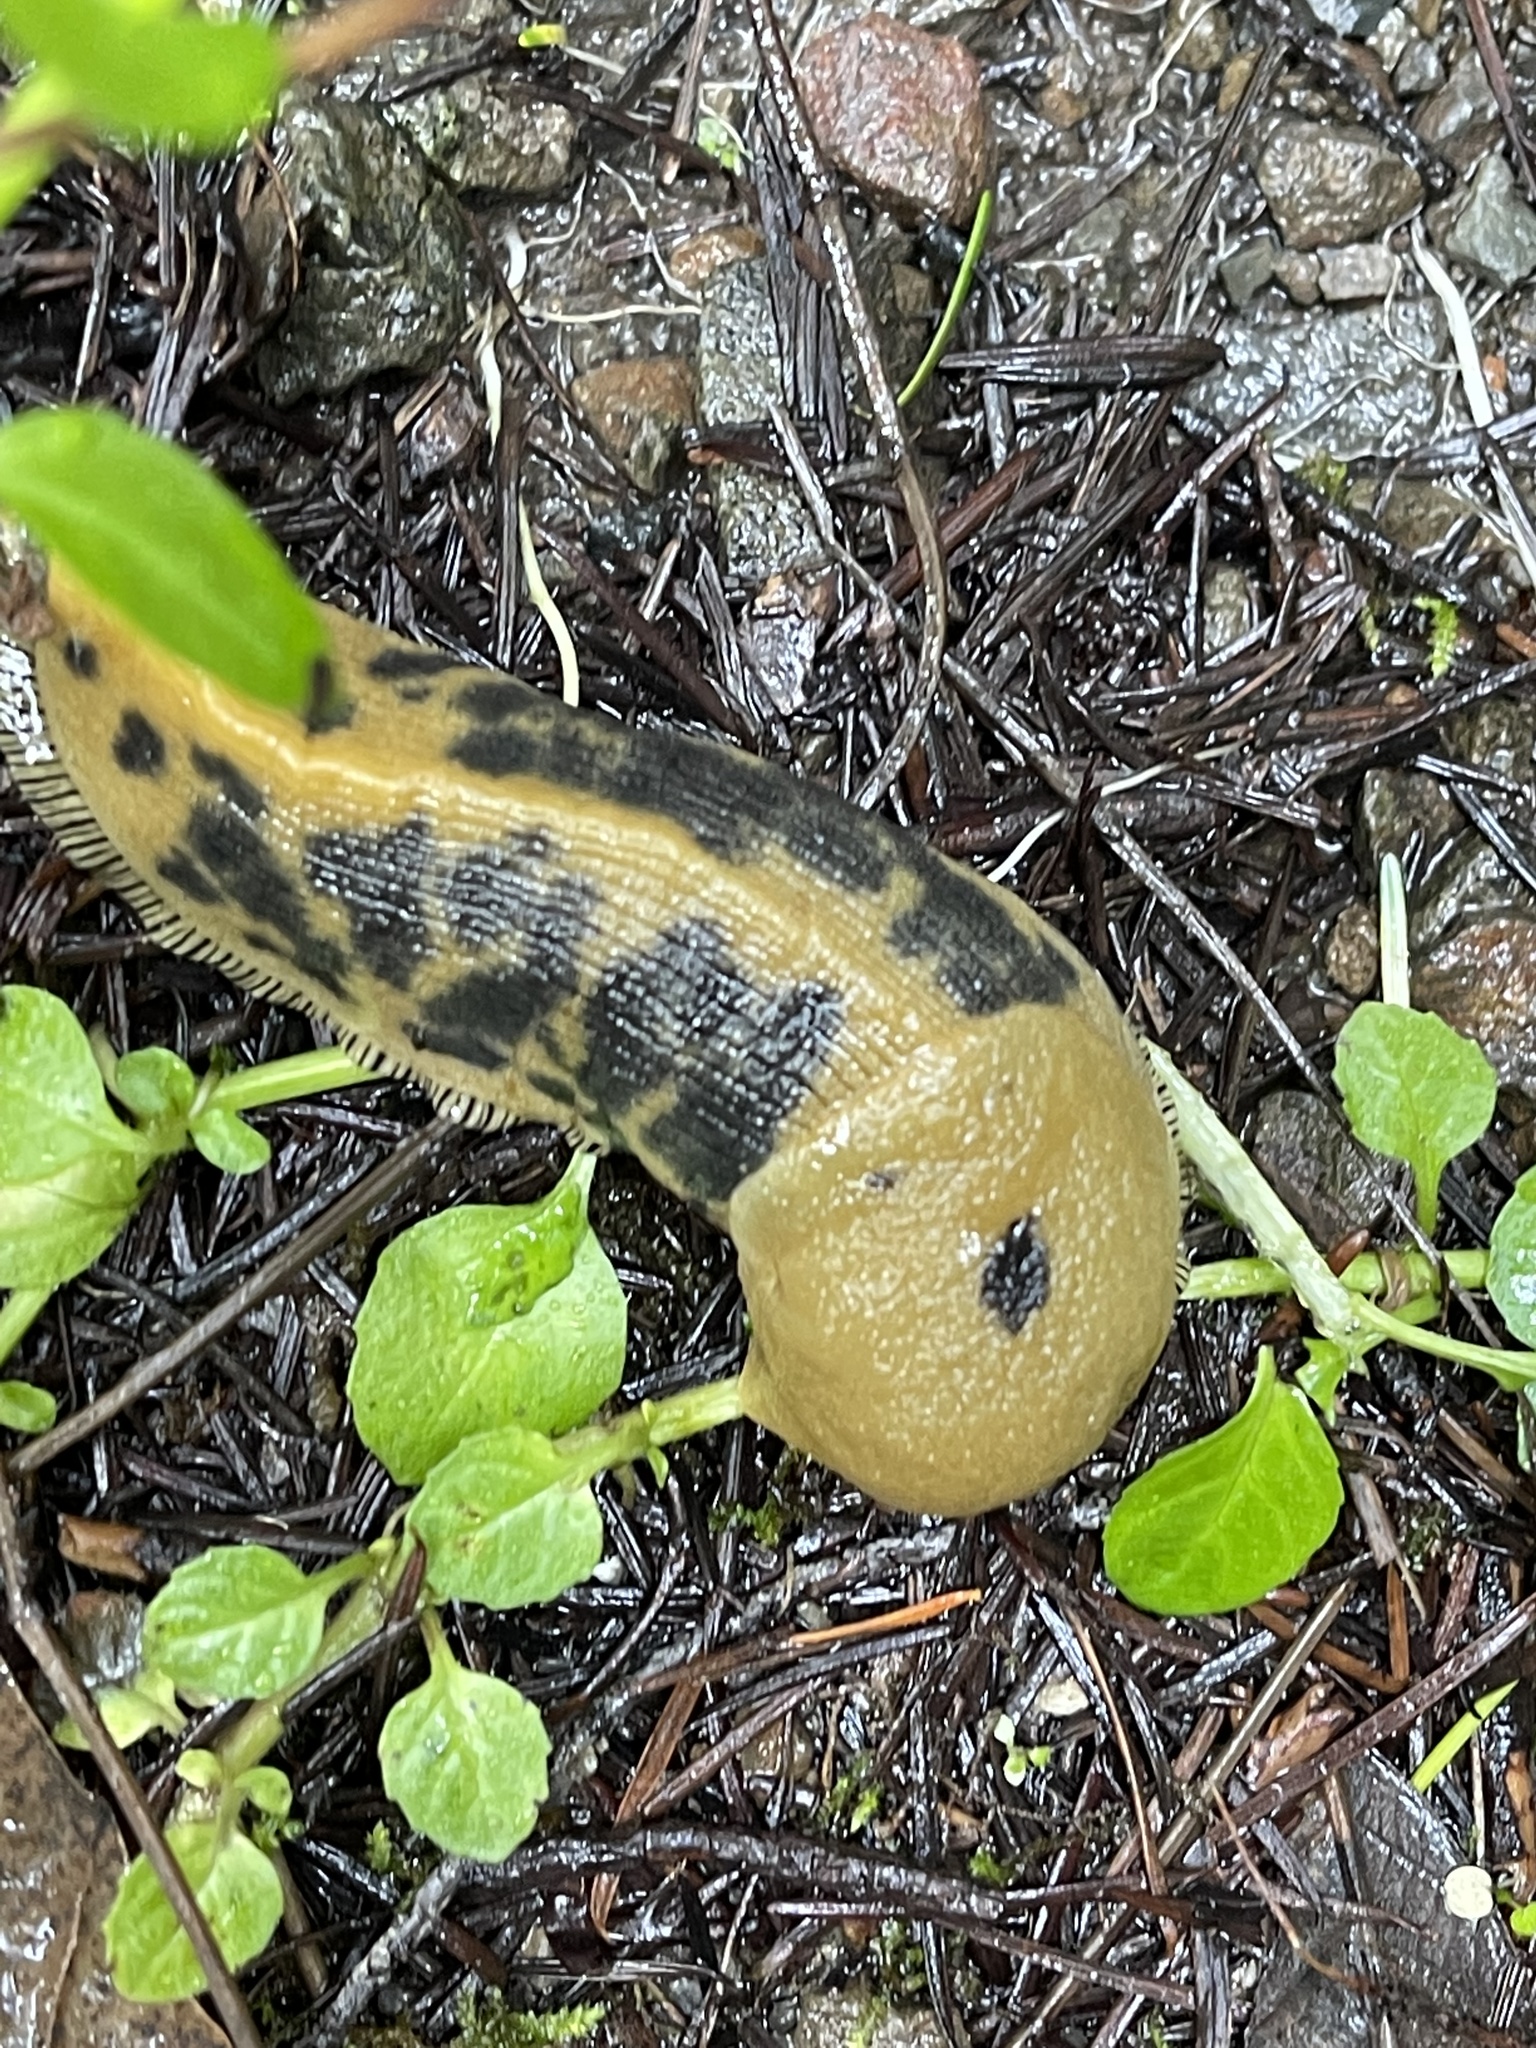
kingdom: Animalia
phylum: Mollusca
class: Gastropoda
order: Stylommatophora
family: Ariolimacidae
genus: Ariolimax
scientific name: Ariolimax buttoni
